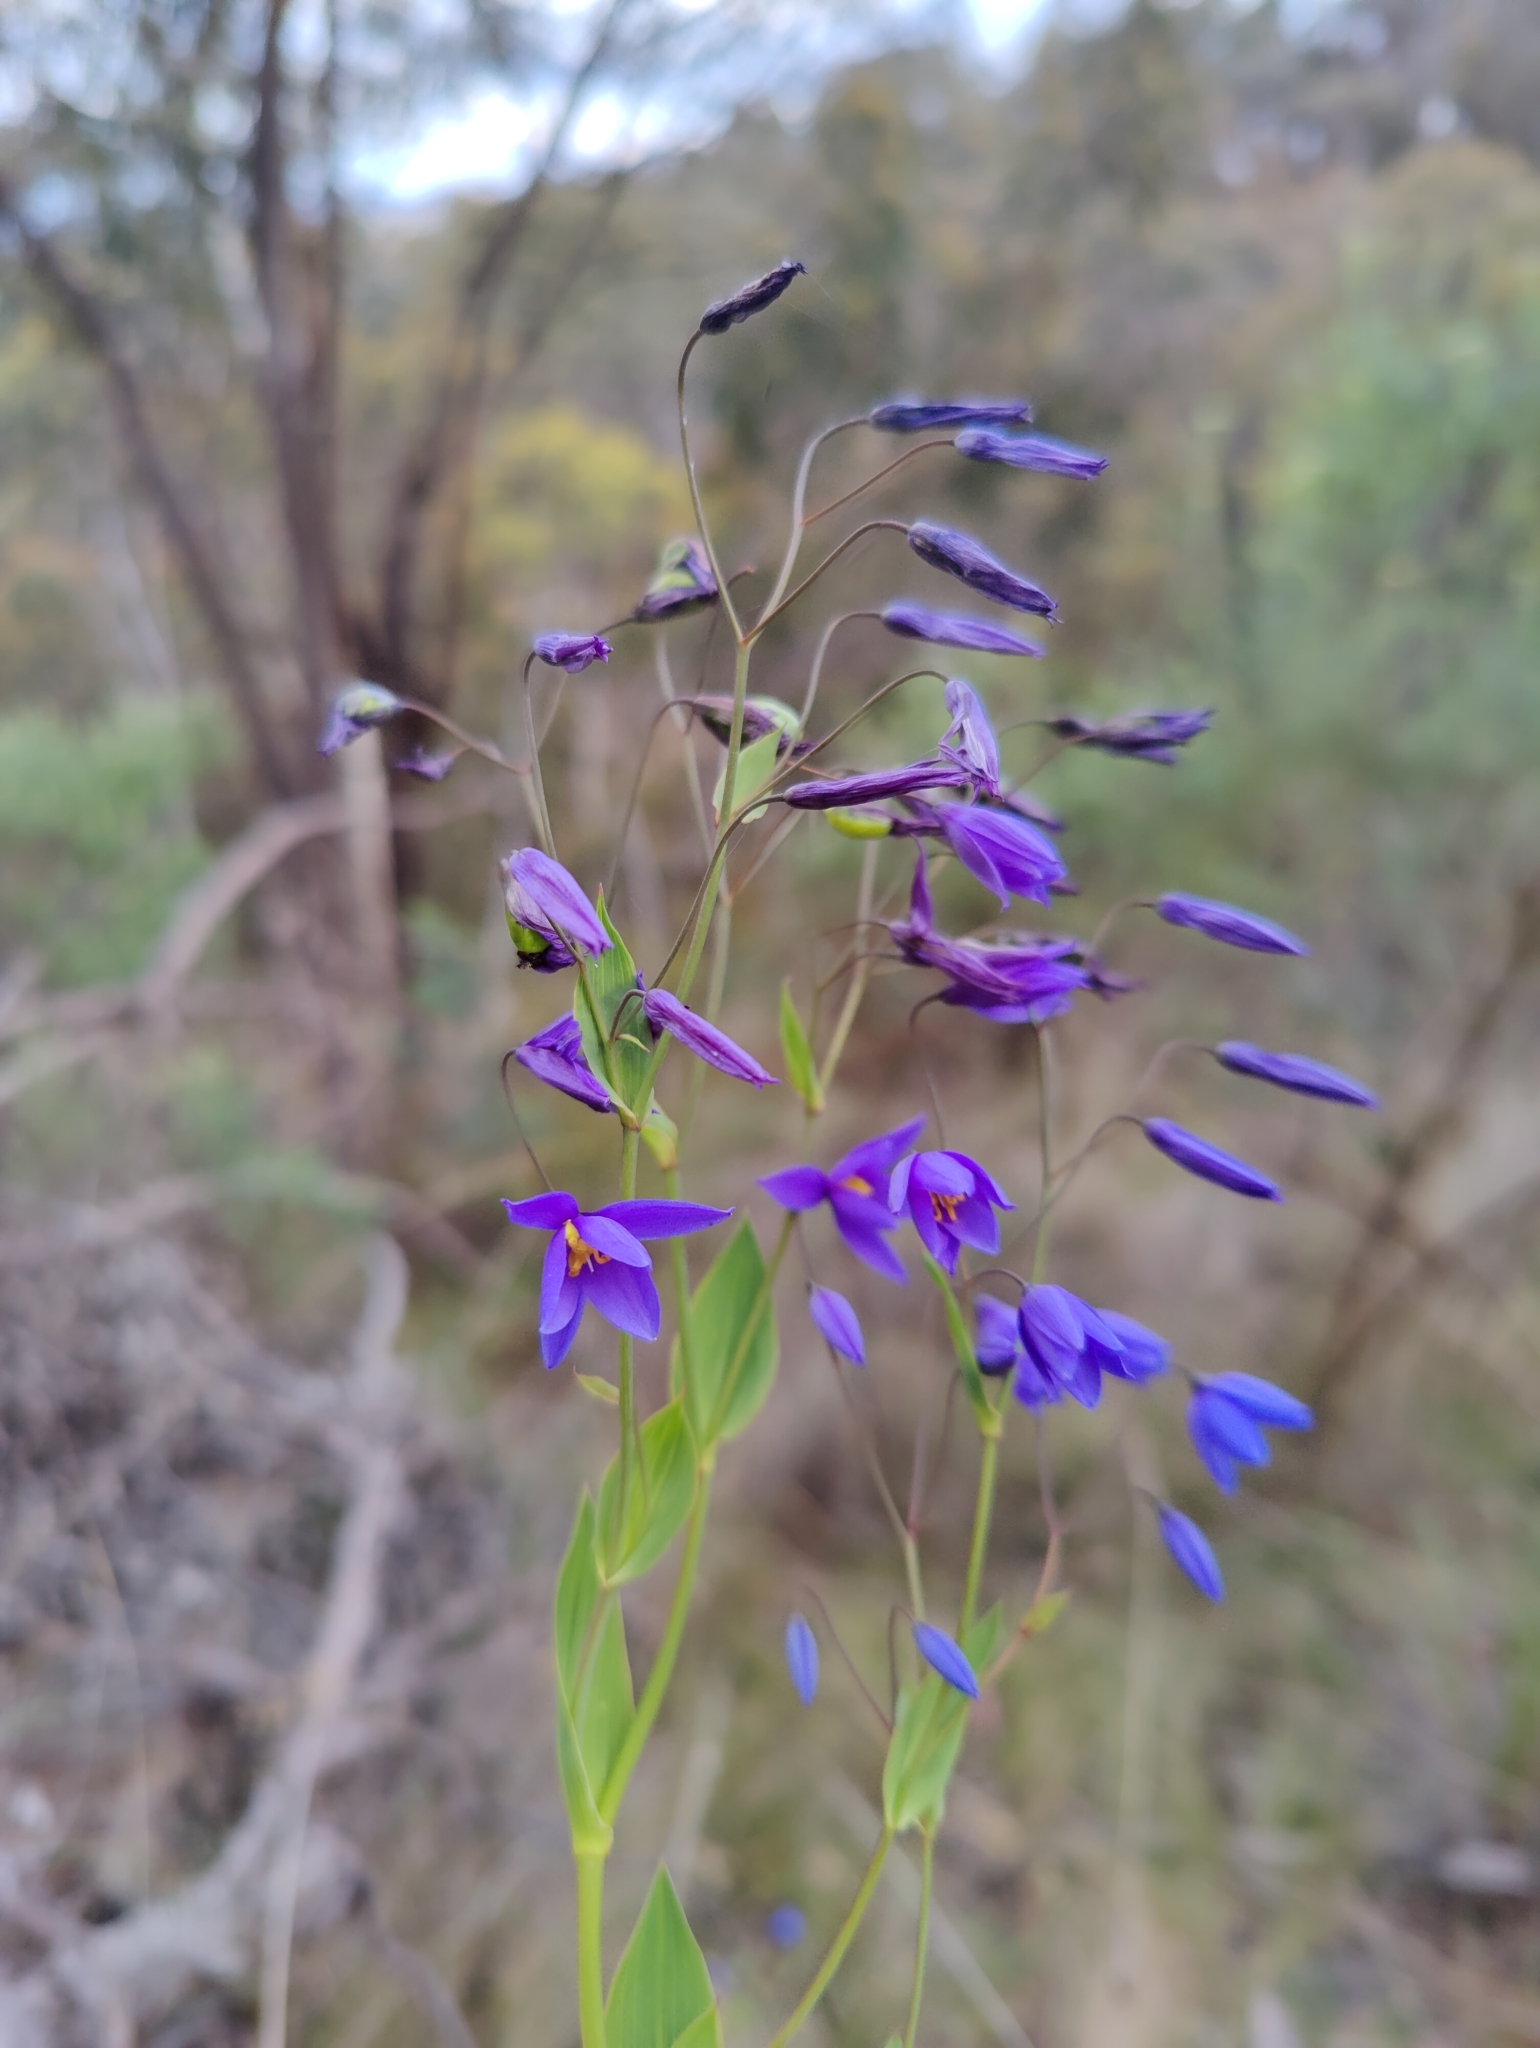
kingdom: Plantae
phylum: Tracheophyta
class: Liliopsida
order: Asparagales
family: Asphodelaceae
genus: Stypandra
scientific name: Stypandra glauca
